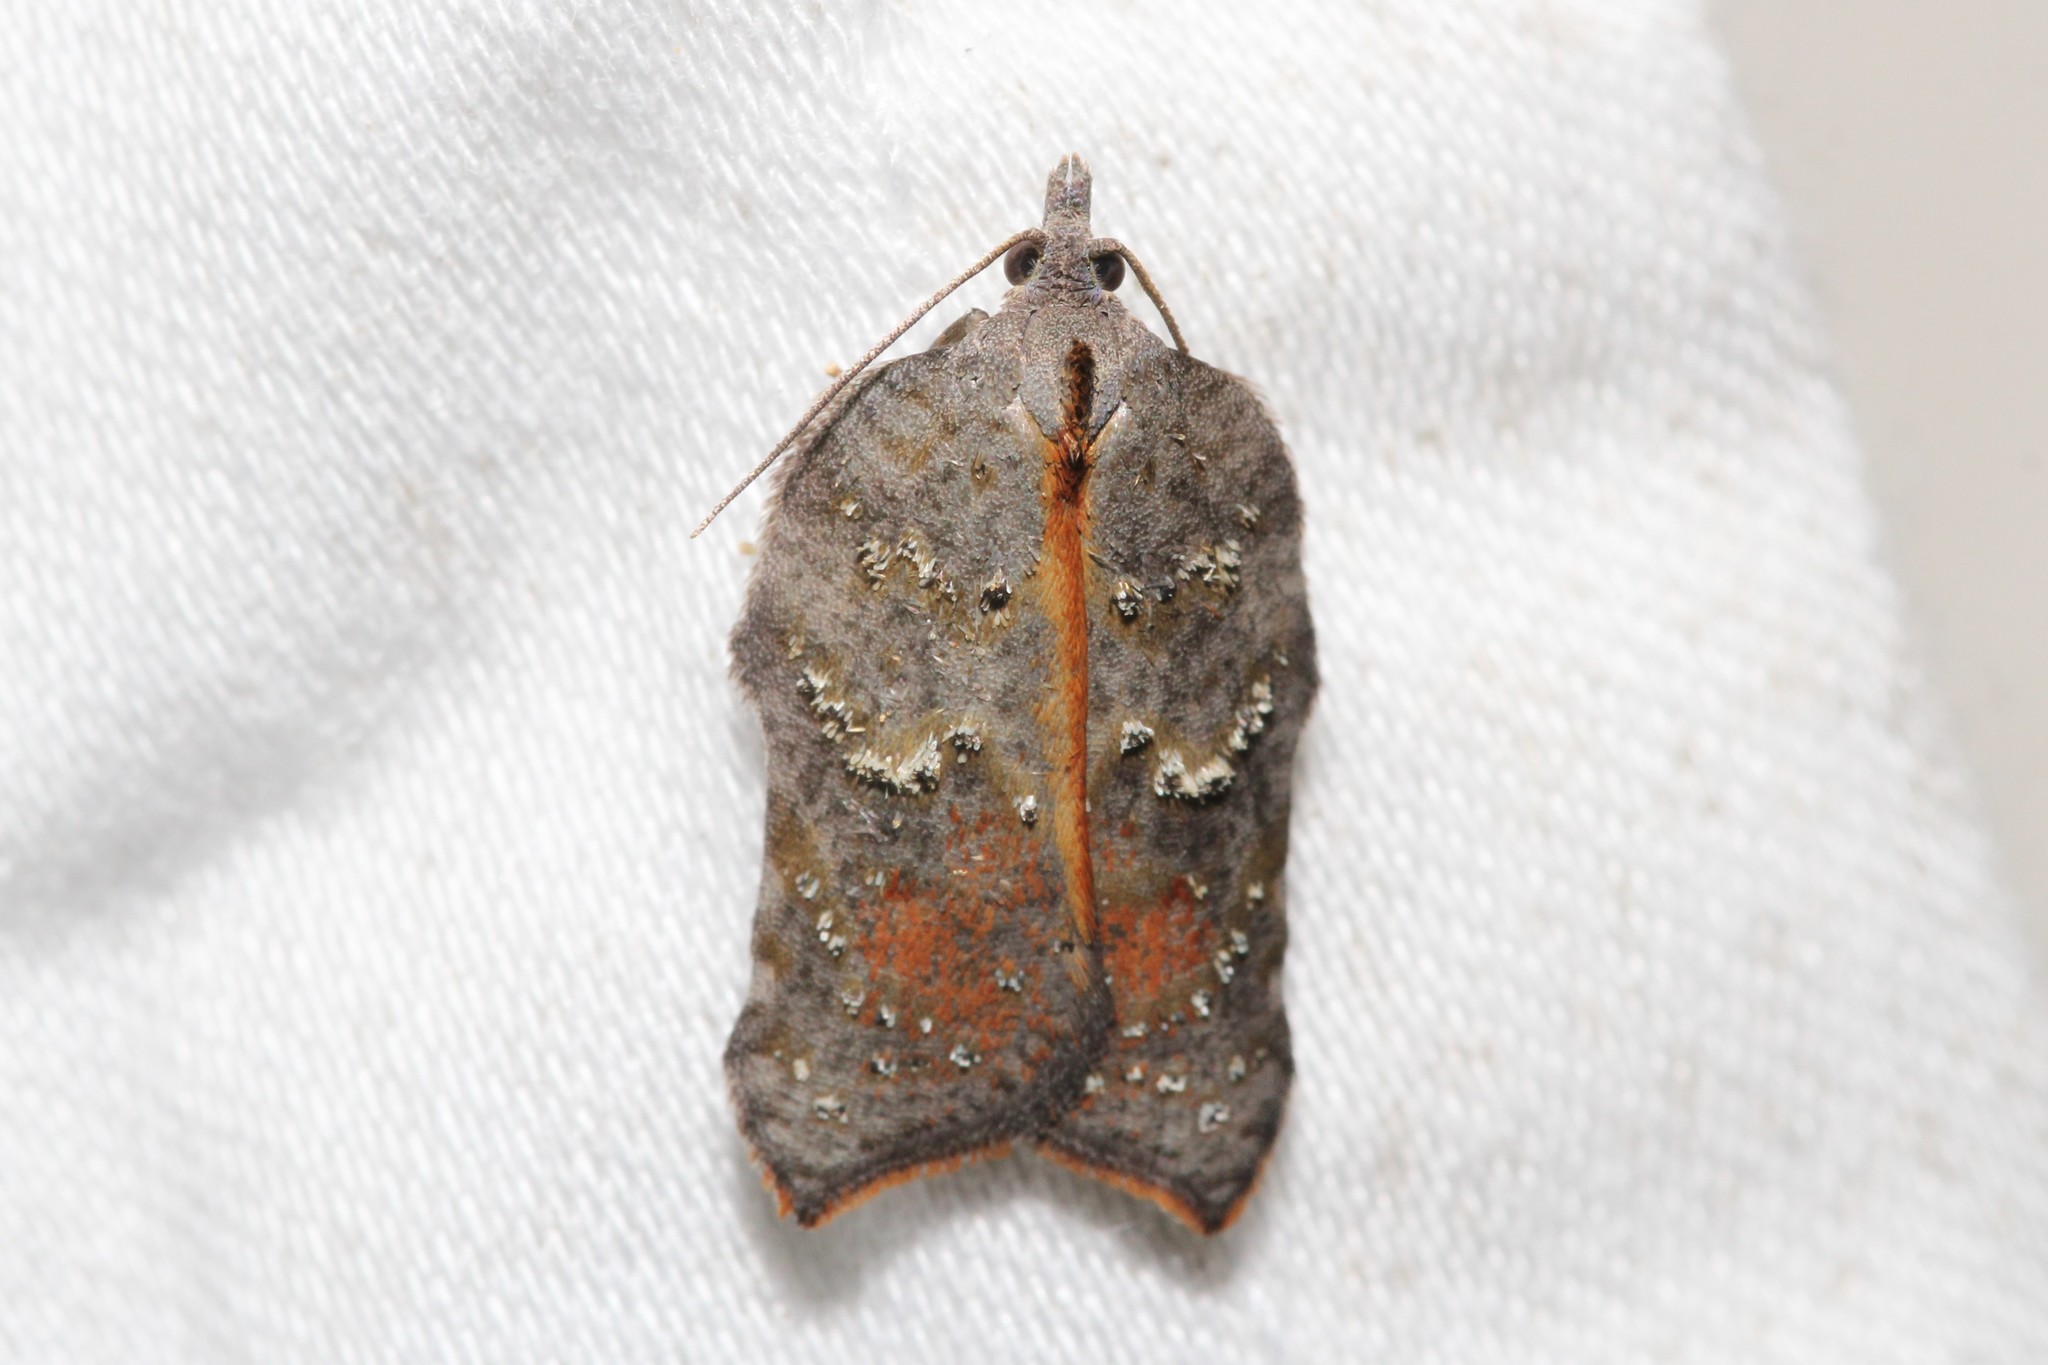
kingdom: Animalia
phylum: Arthropoda
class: Insecta
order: Lepidoptera
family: Tortricidae
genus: Acleris
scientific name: Acleris effractana
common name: Hook-winged tortrix moth
